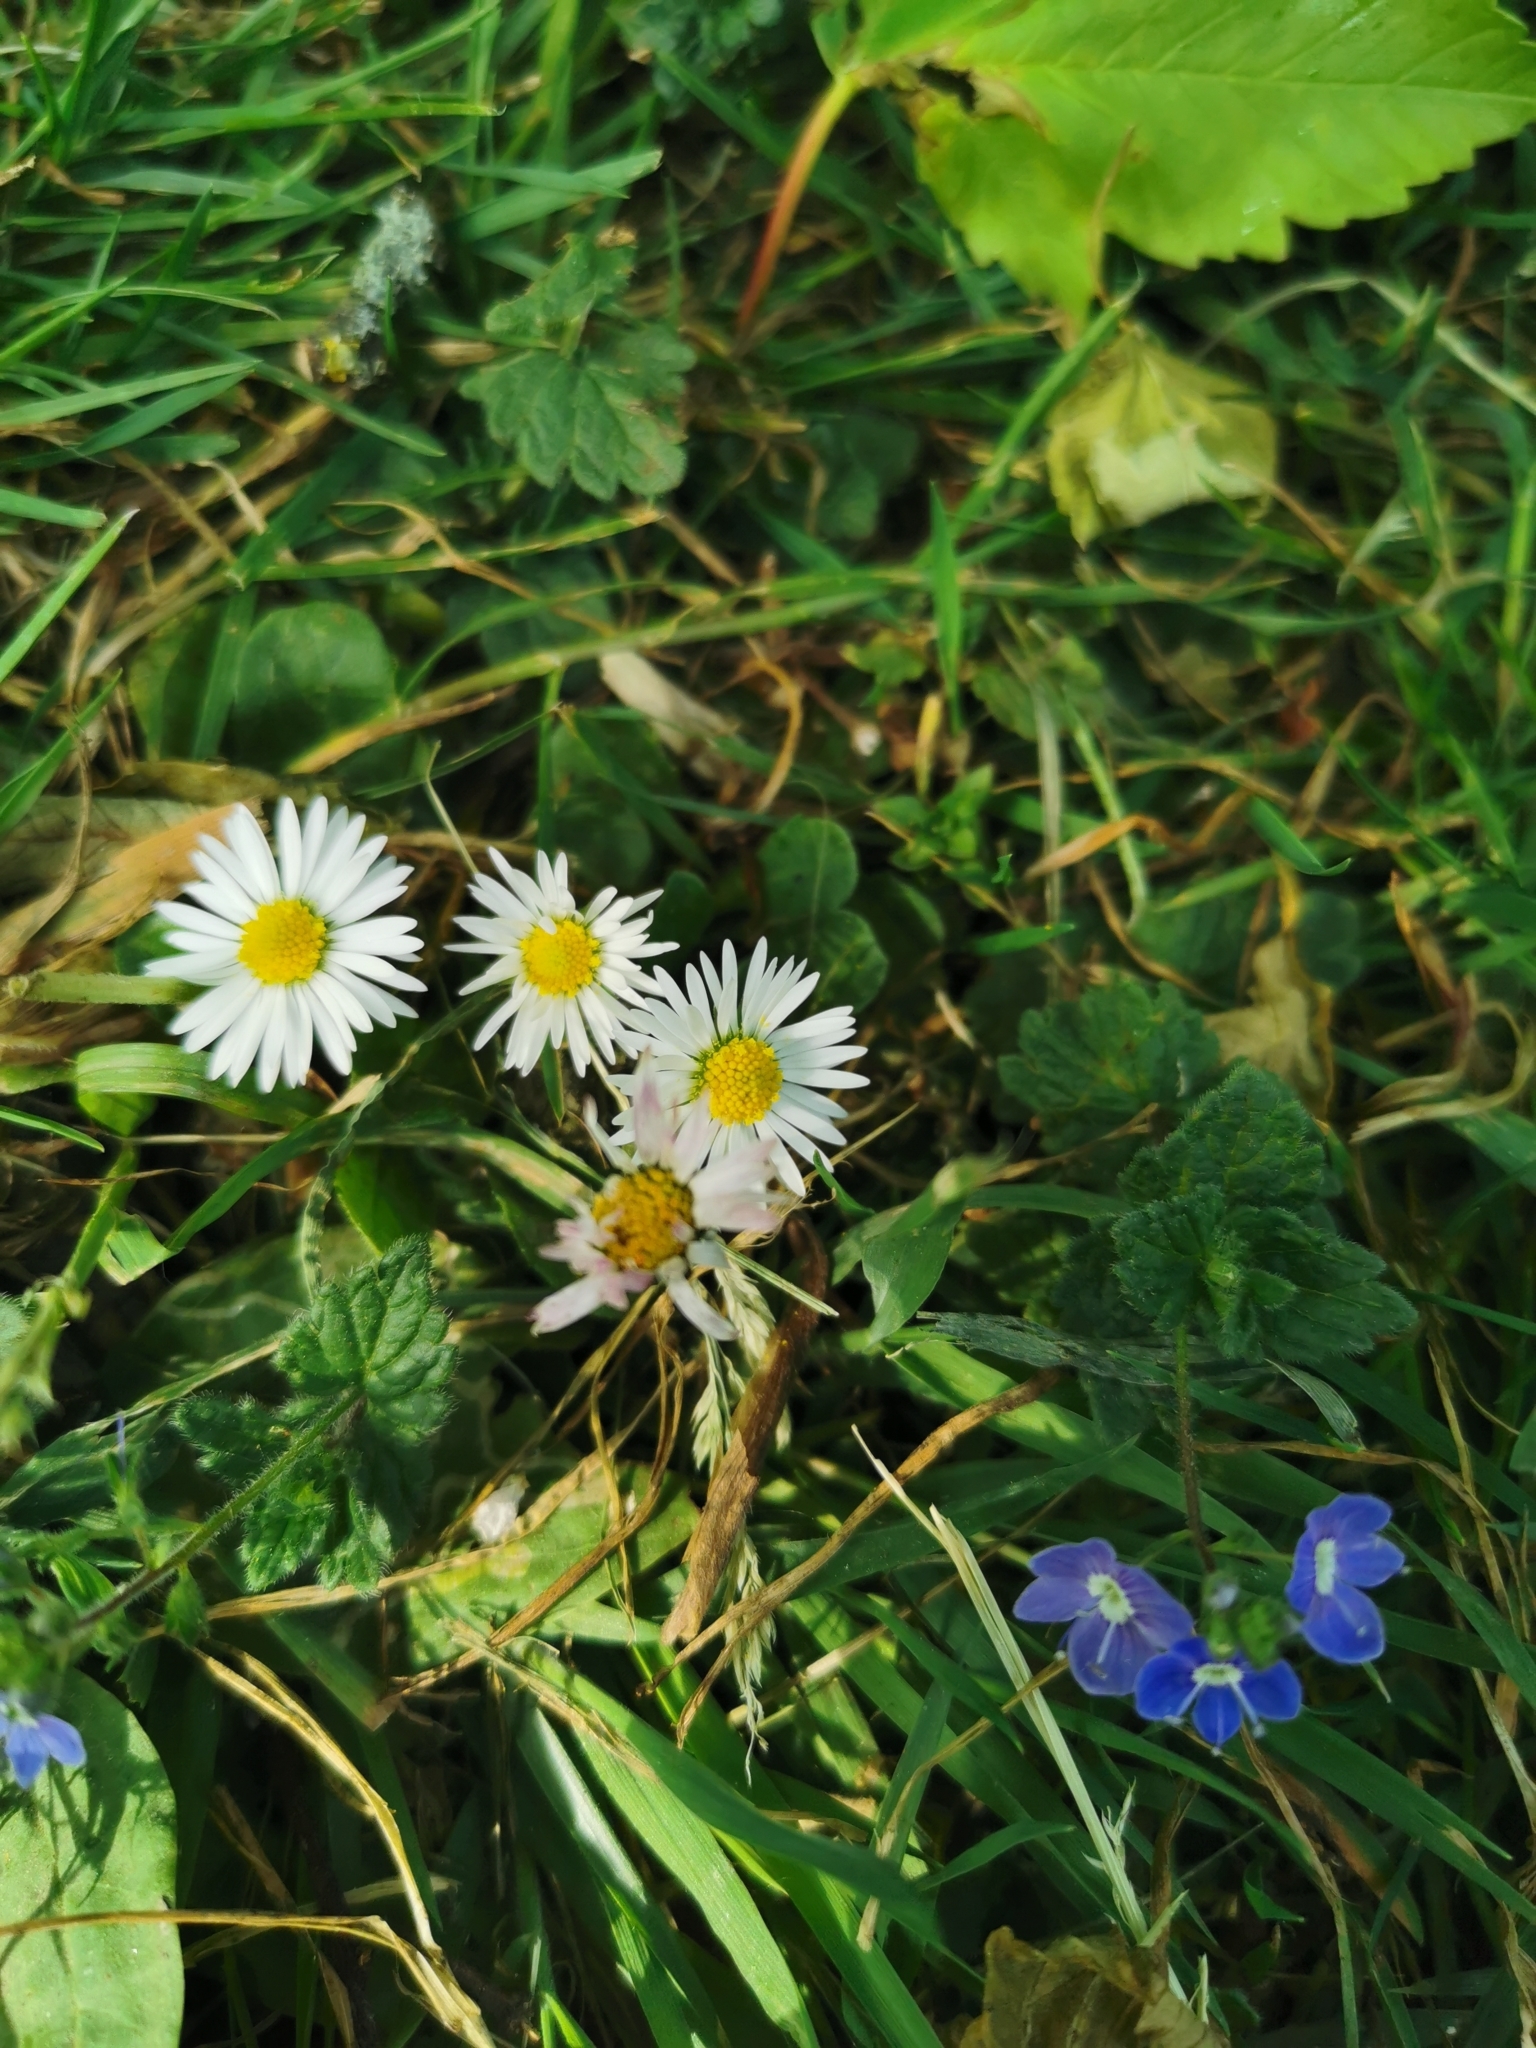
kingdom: Plantae
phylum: Tracheophyta
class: Magnoliopsida
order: Asterales
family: Asteraceae
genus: Bellis
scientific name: Bellis perennis
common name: Lawndaisy
